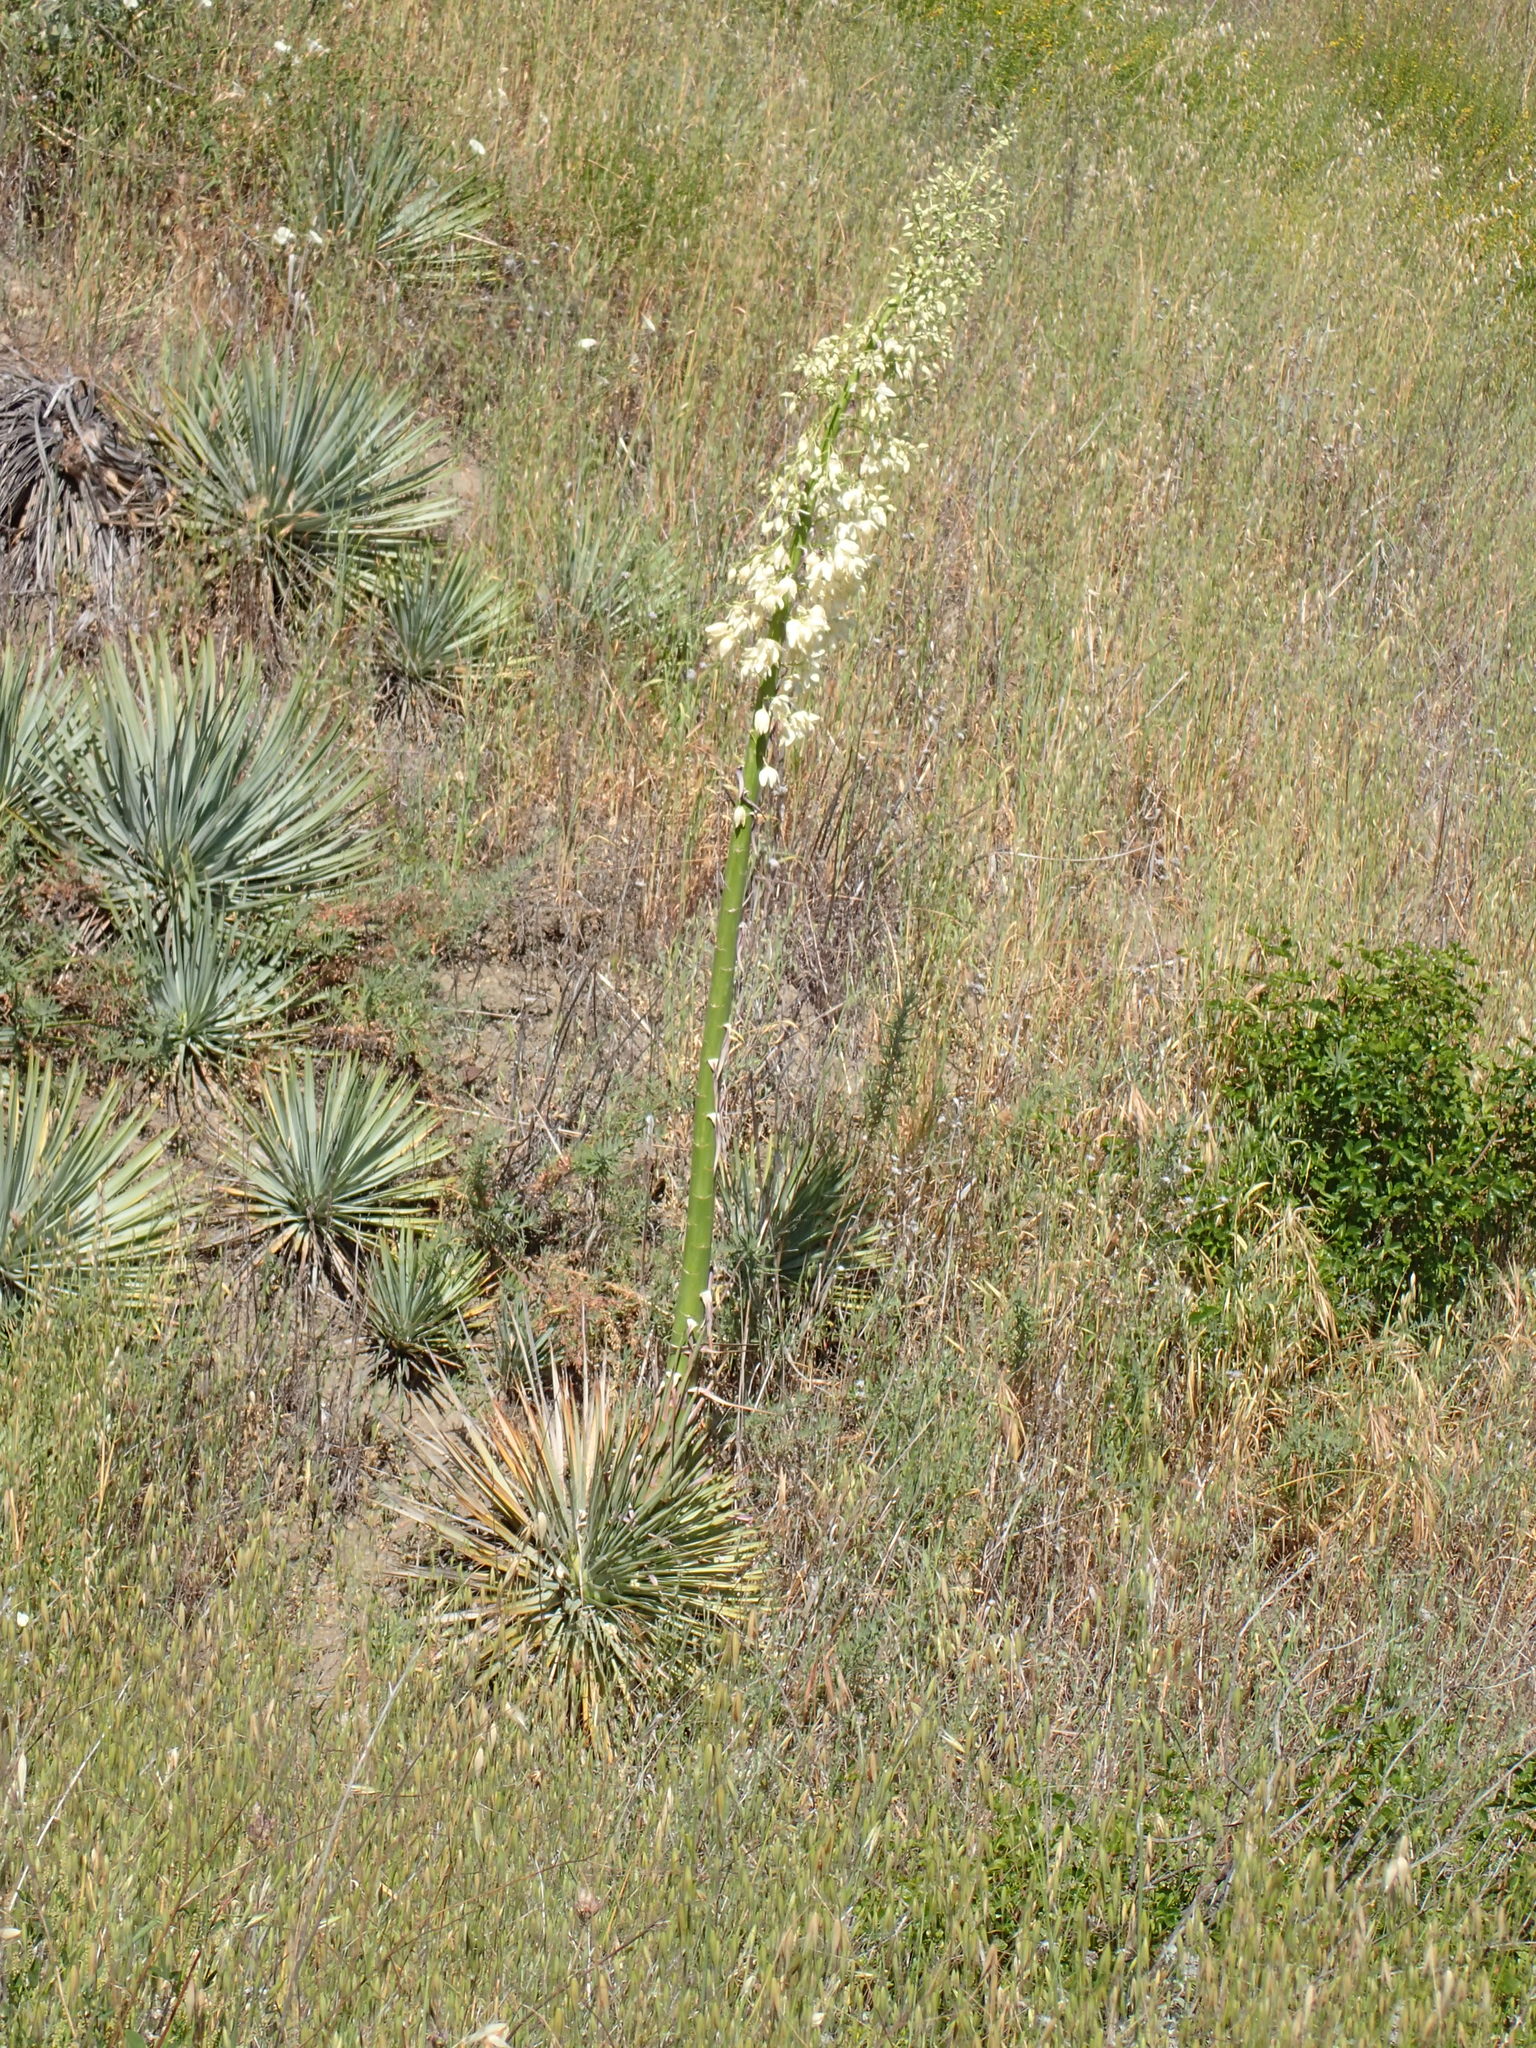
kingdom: Plantae
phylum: Tracheophyta
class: Liliopsida
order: Asparagales
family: Asparagaceae
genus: Hesperoyucca
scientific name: Hesperoyucca whipplei
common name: Our lord's-candle
